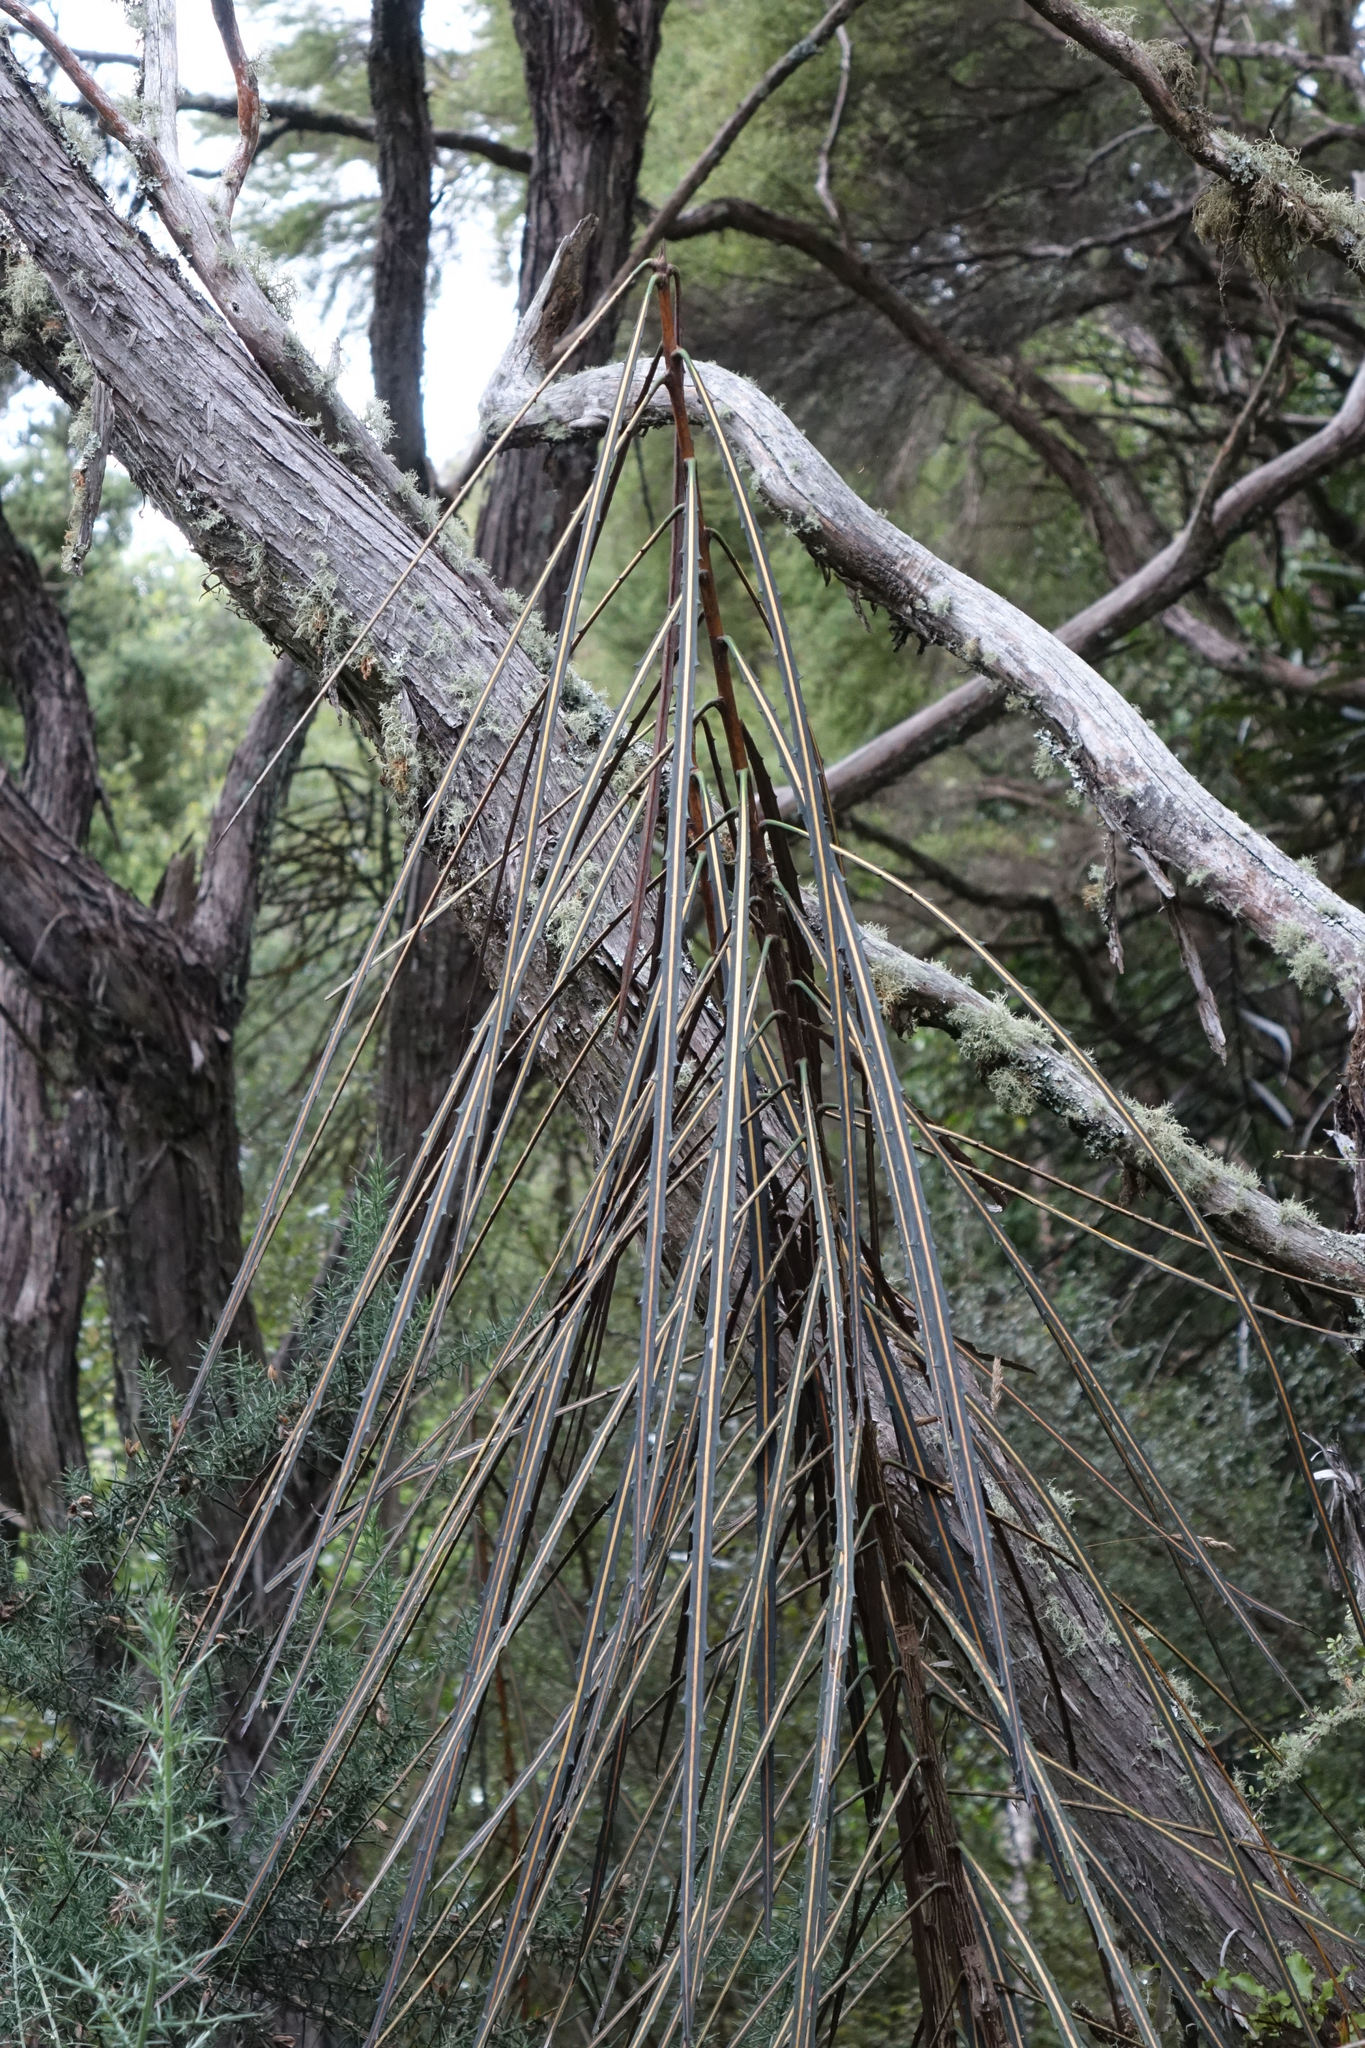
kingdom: Plantae
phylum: Tracheophyta
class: Magnoliopsida
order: Apiales
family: Araliaceae
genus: Pseudopanax
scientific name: Pseudopanax crassifolius
